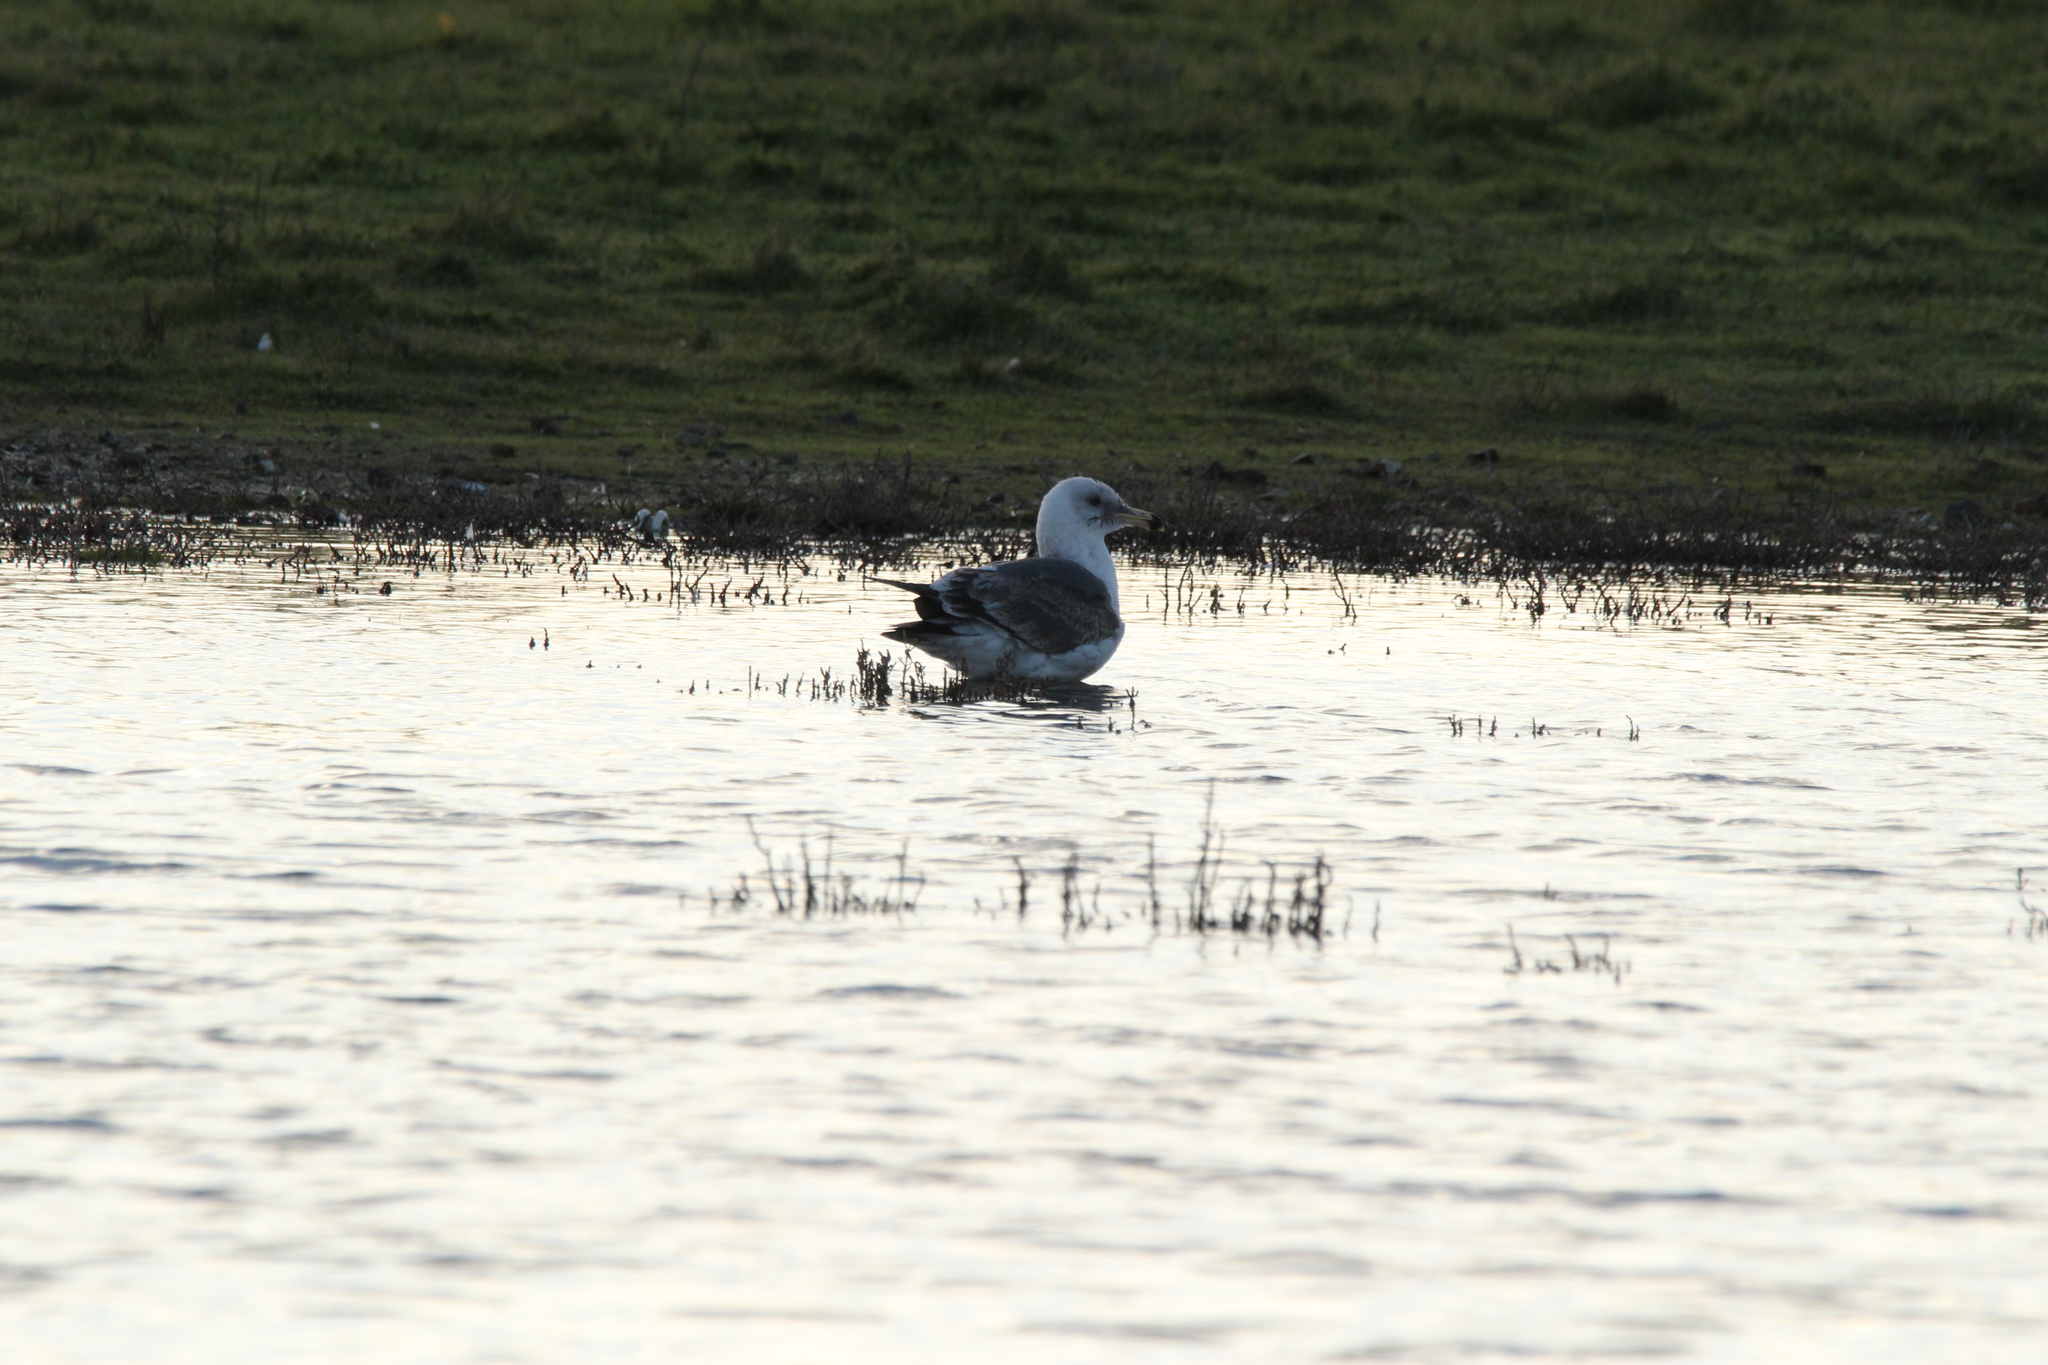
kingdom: Animalia
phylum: Chordata
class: Aves
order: Charadriiformes
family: Laridae
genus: Larus
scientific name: Larus occidentalis
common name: Western gull
